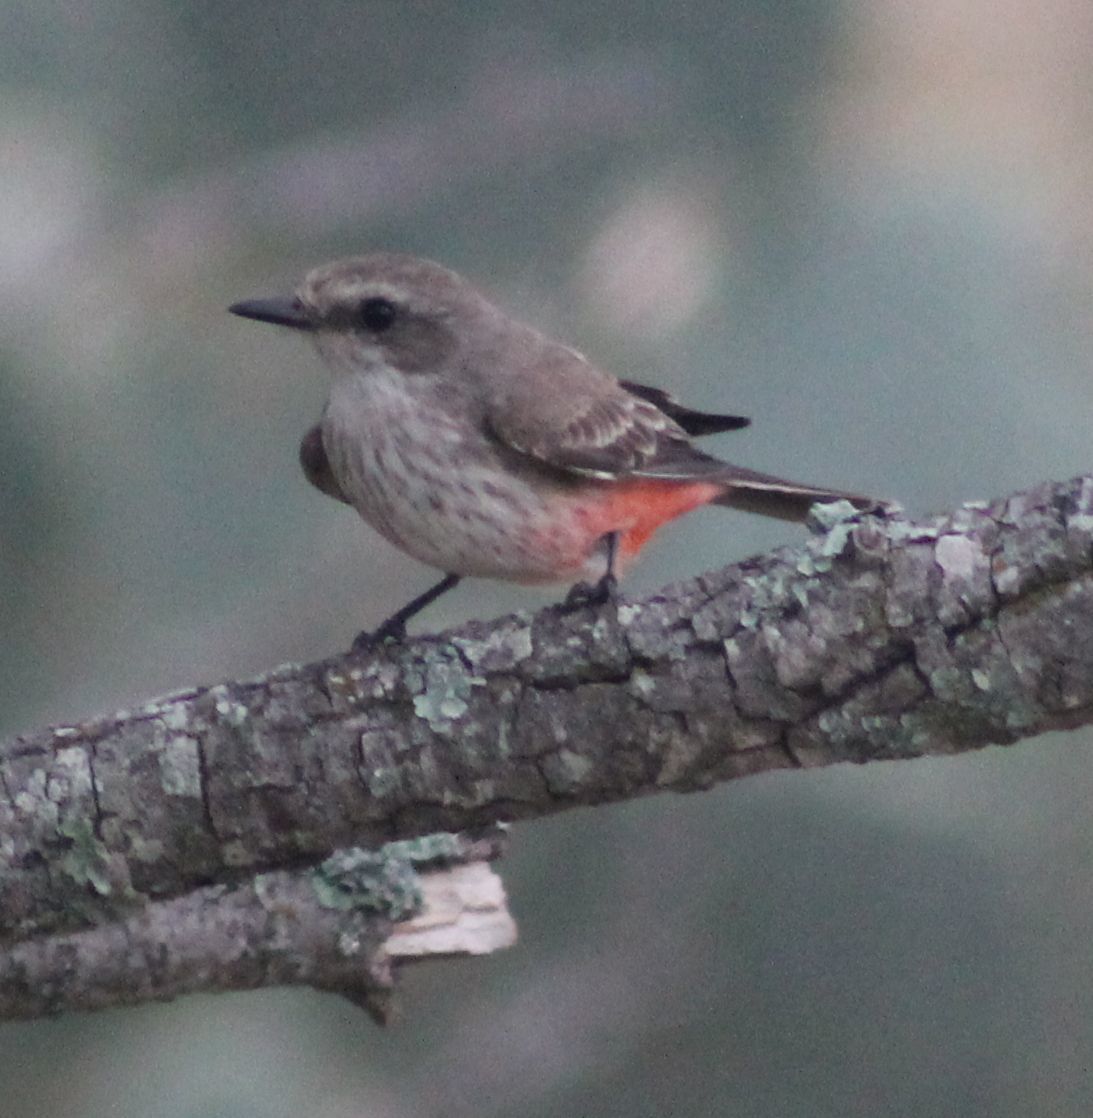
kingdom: Animalia
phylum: Chordata
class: Aves
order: Passeriformes
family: Tyrannidae
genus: Pyrocephalus
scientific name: Pyrocephalus rubinus
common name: Vermilion flycatcher
